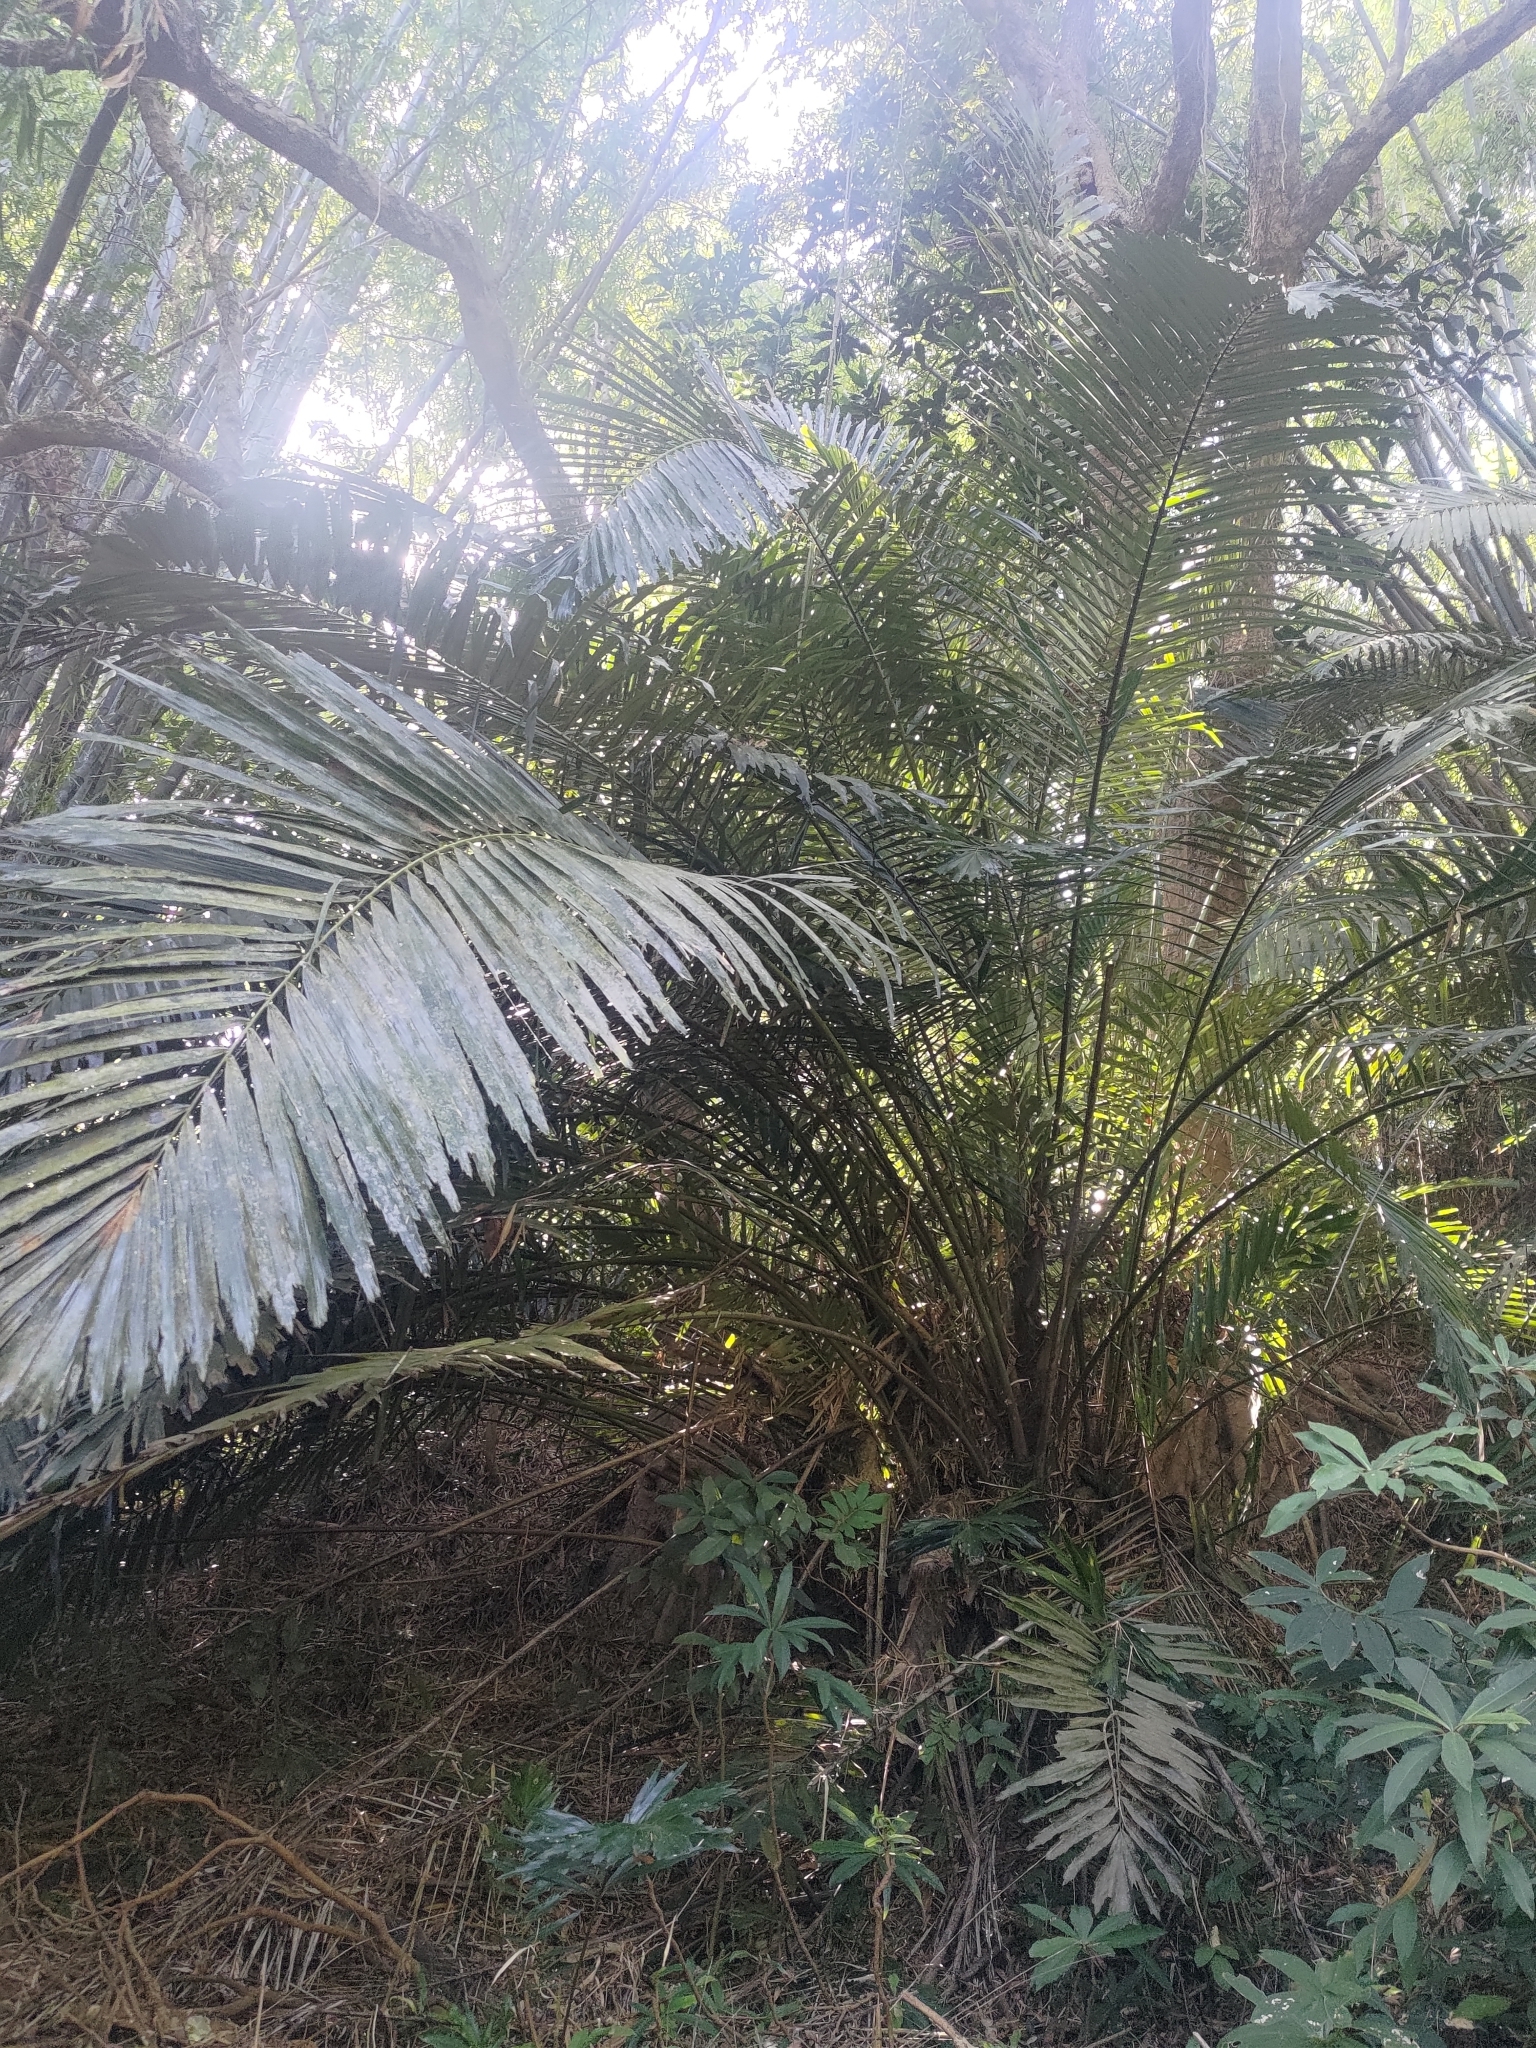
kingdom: Plantae
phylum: Tracheophyta
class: Liliopsida
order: Arecales
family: Arecaceae
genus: Arenga
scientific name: Arenga engleri
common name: Formosan sugar palm
